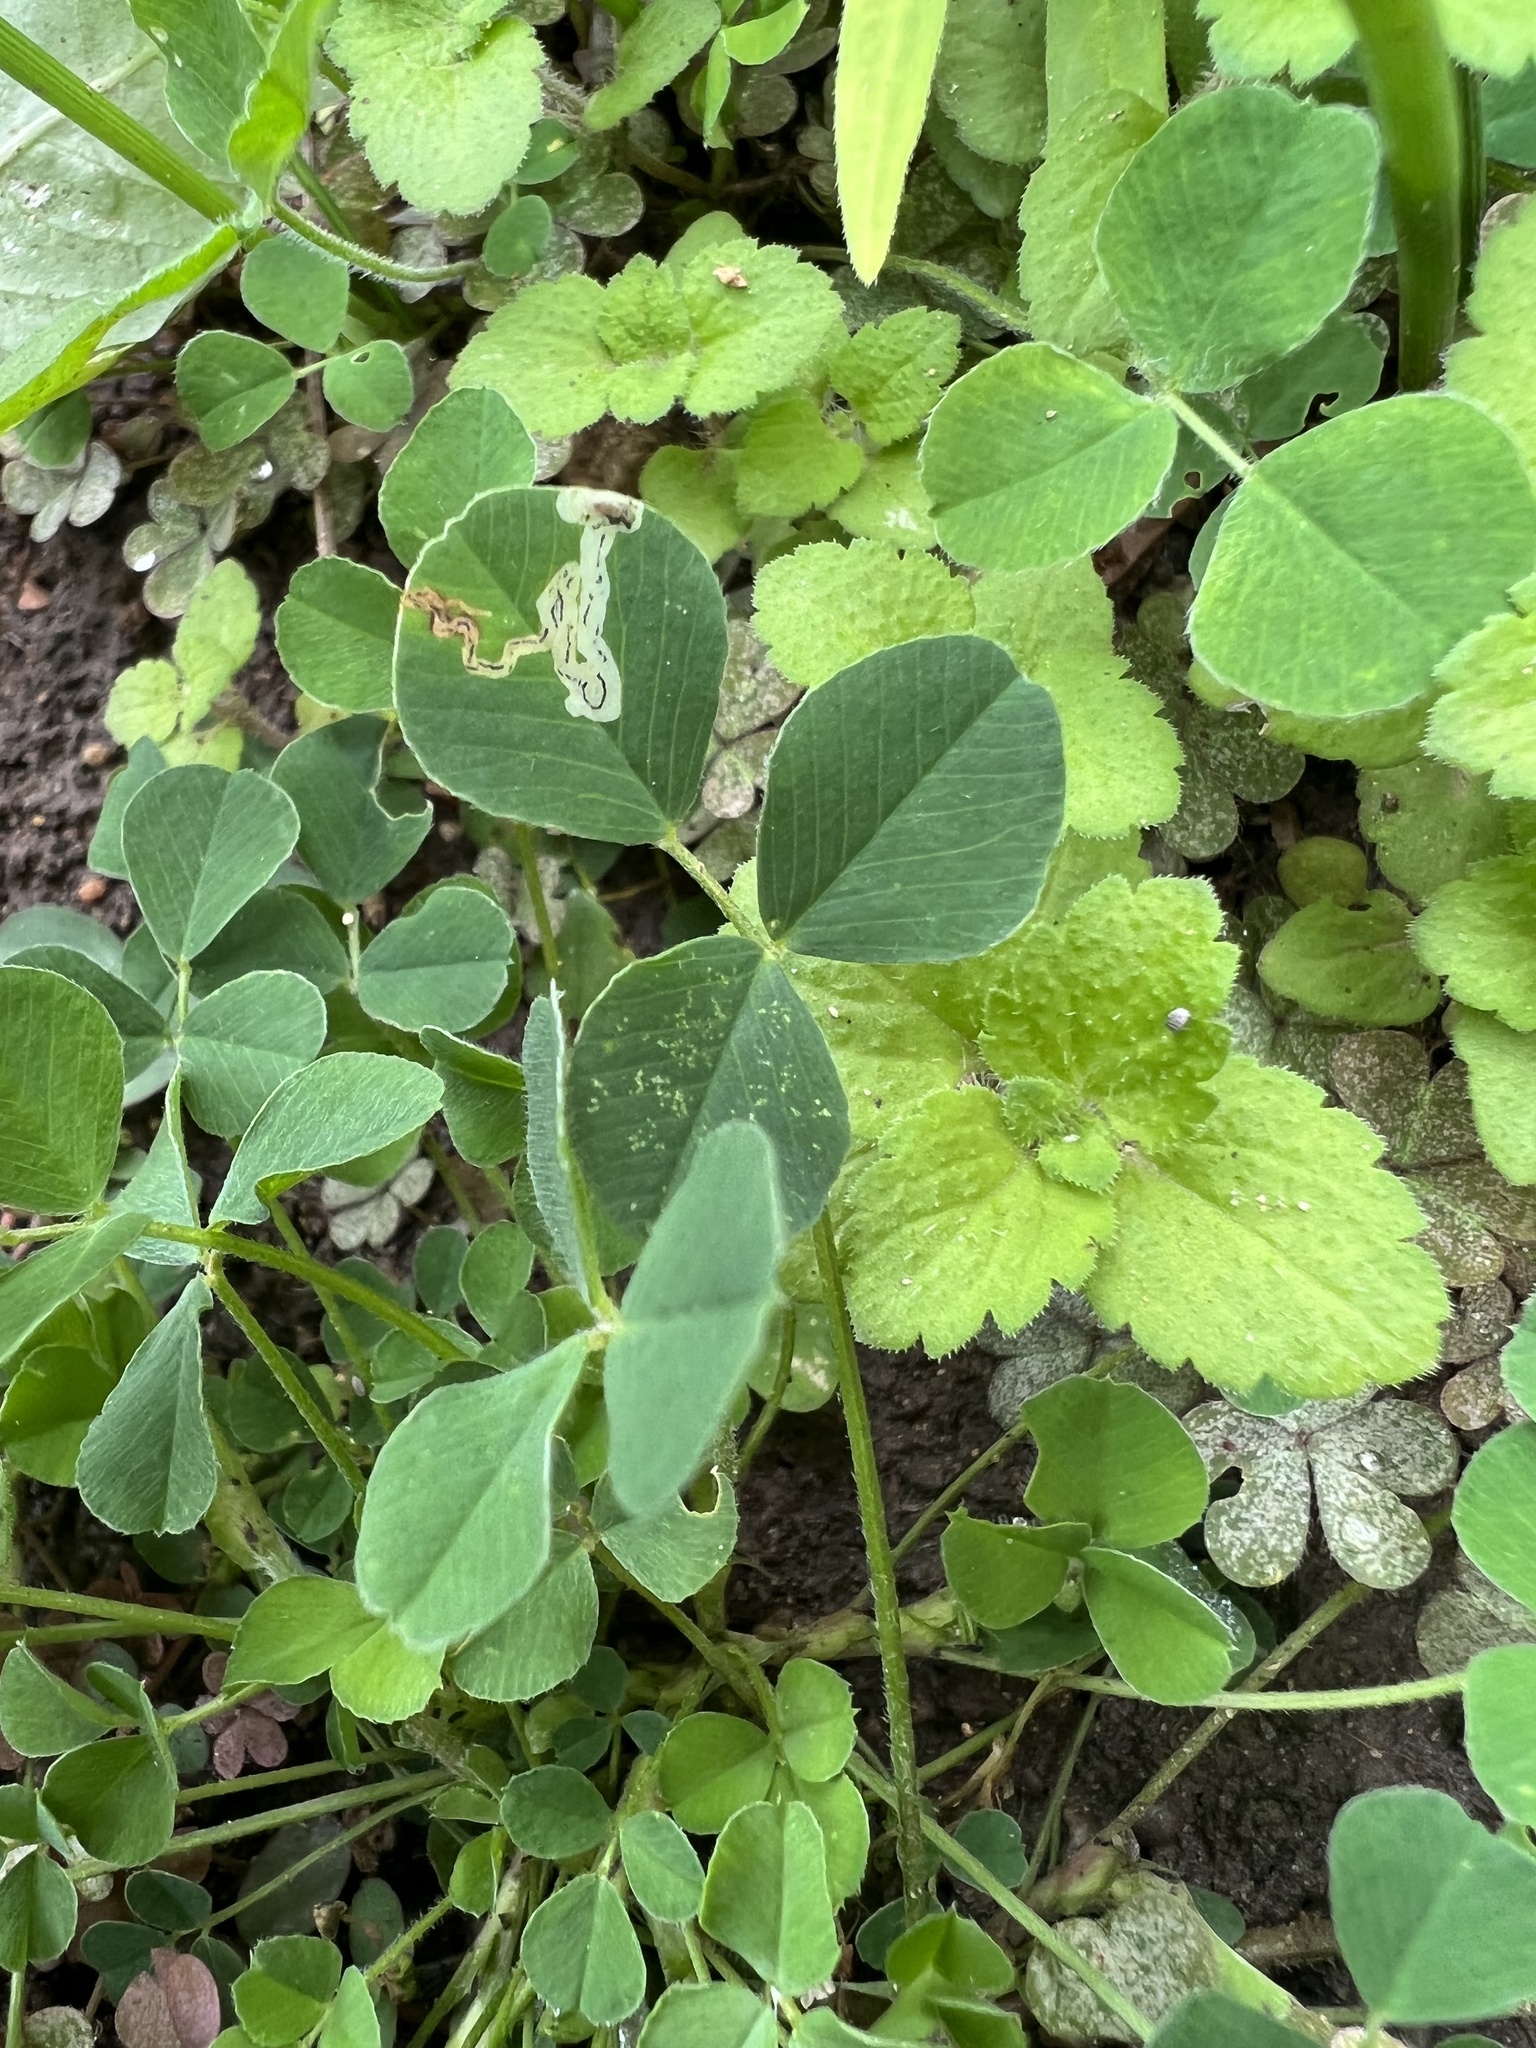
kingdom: Plantae
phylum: Tracheophyta
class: Magnoliopsida
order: Fabales
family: Fabaceae
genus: Medicago
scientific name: Medicago lupulina
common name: Black medick
